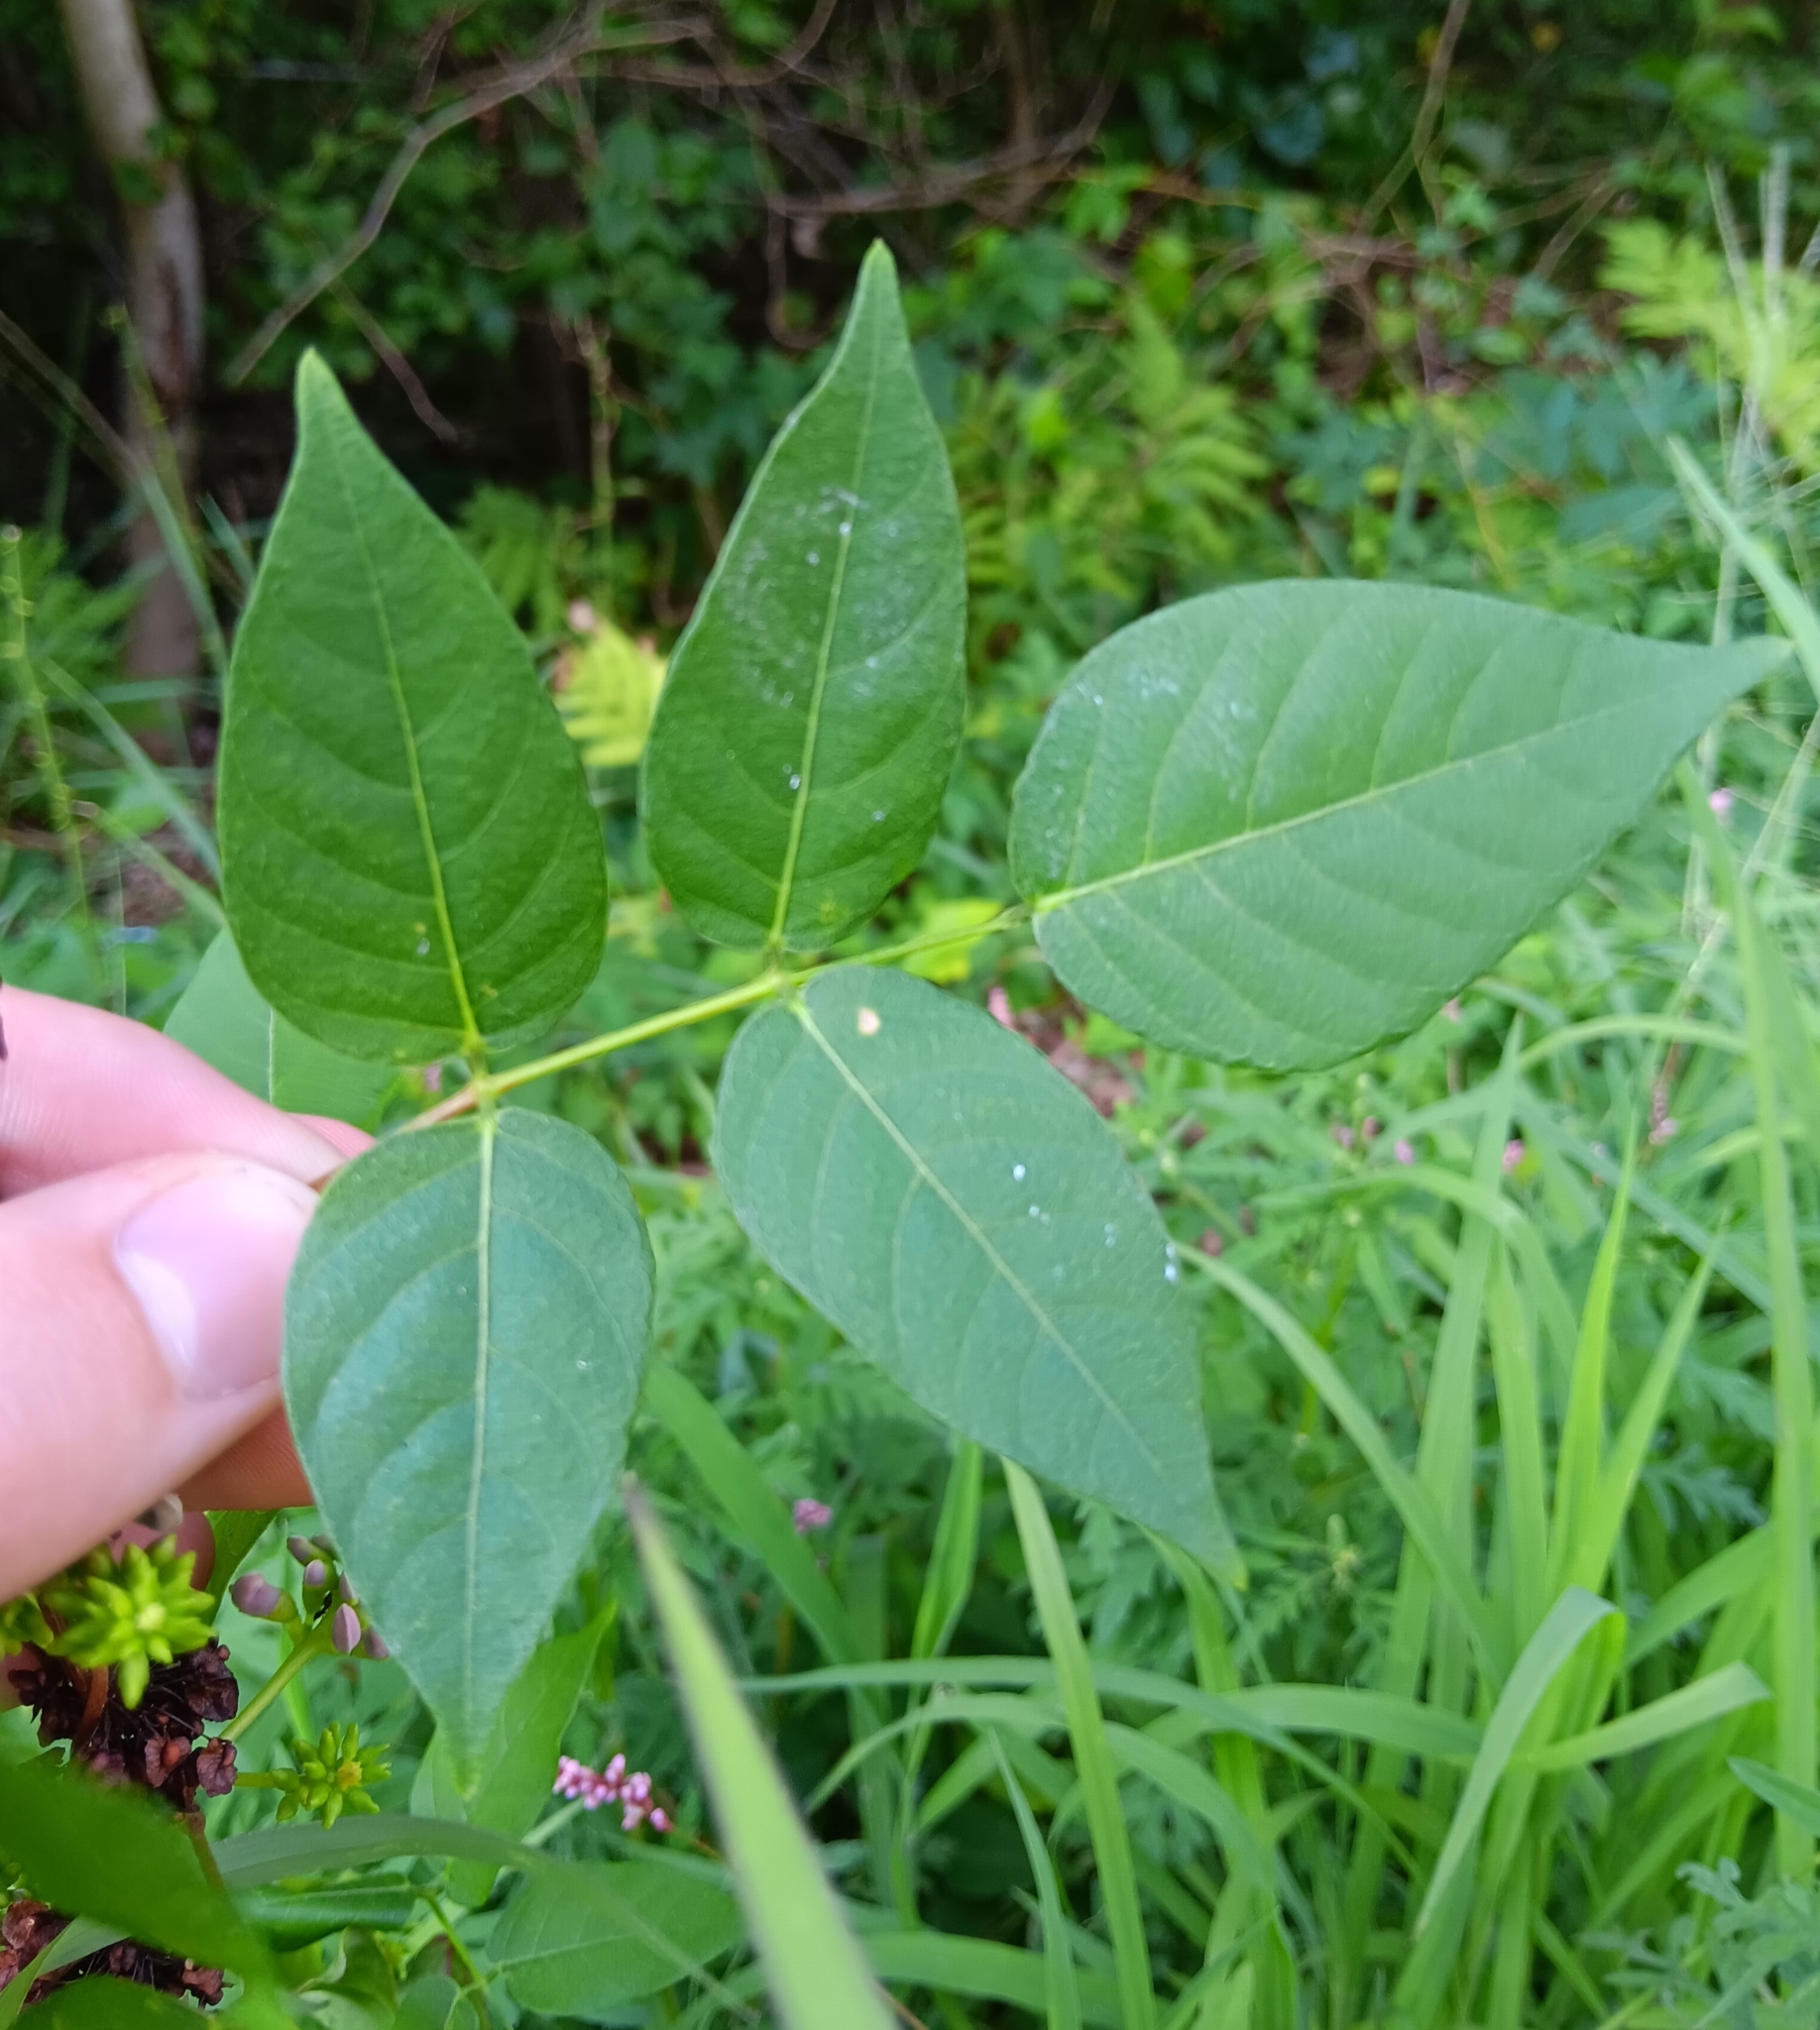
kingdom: Plantae
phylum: Tracheophyta
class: Magnoliopsida
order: Fabales
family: Fabaceae
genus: Apios
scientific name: Apios americana
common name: American potato-bean
